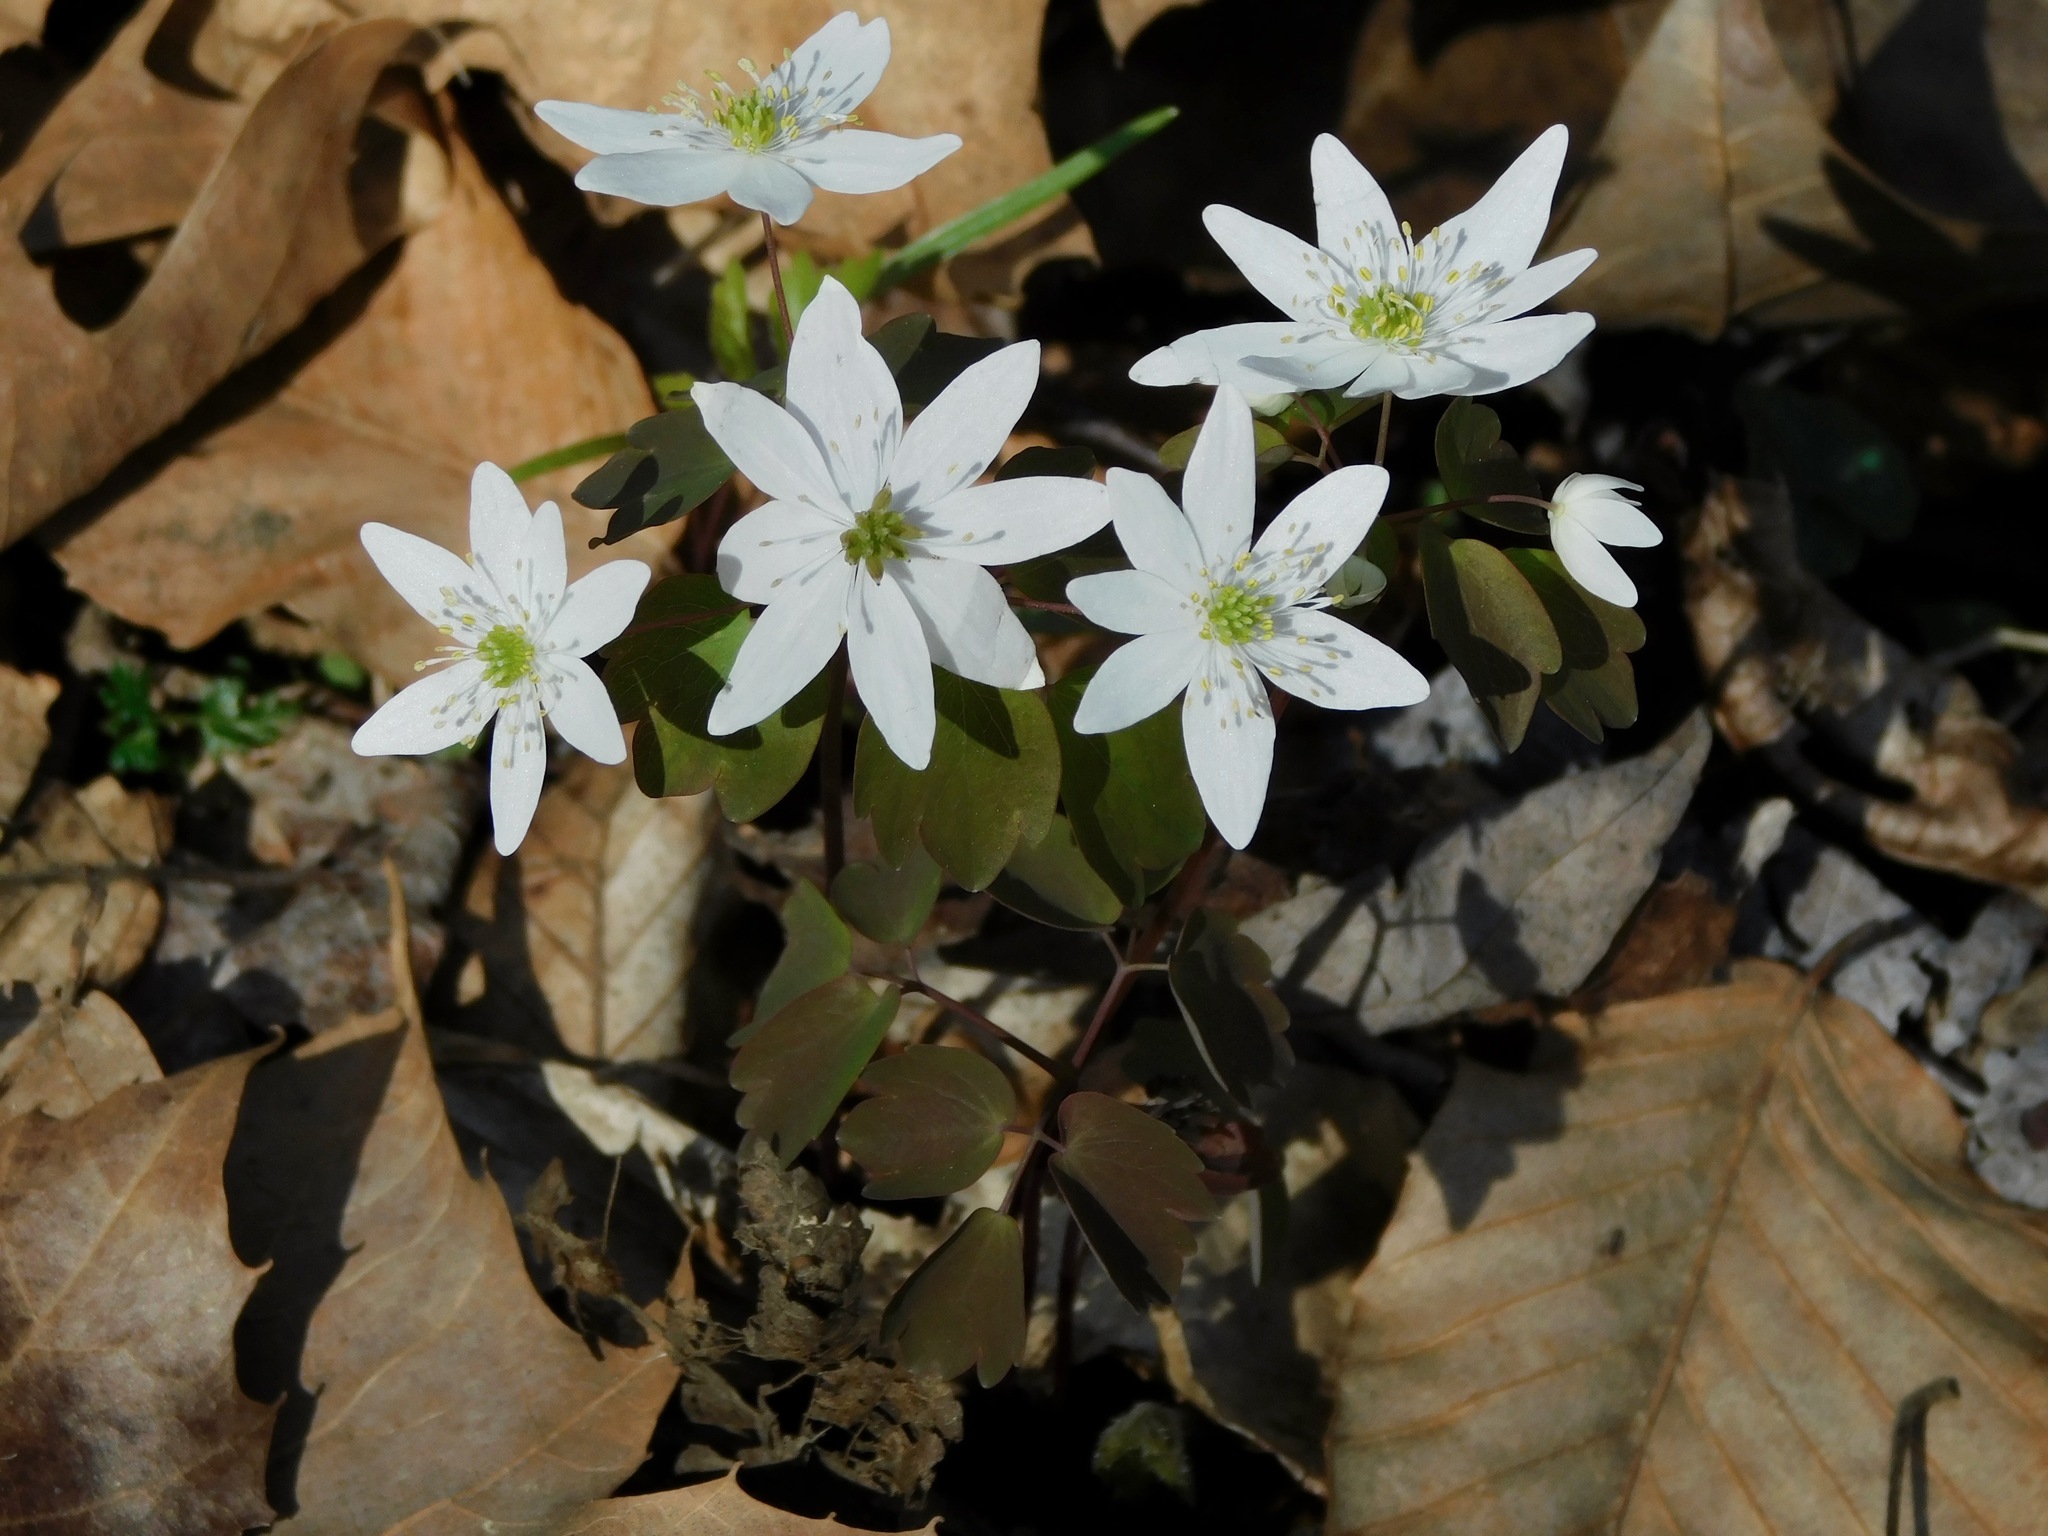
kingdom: Plantae
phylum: Tracheophyta
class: Magnoliopsida
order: Ranunculales
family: Ranunculaceae
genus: Thalictrum
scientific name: Thalictrum thalictroides
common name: Rue-anemone
